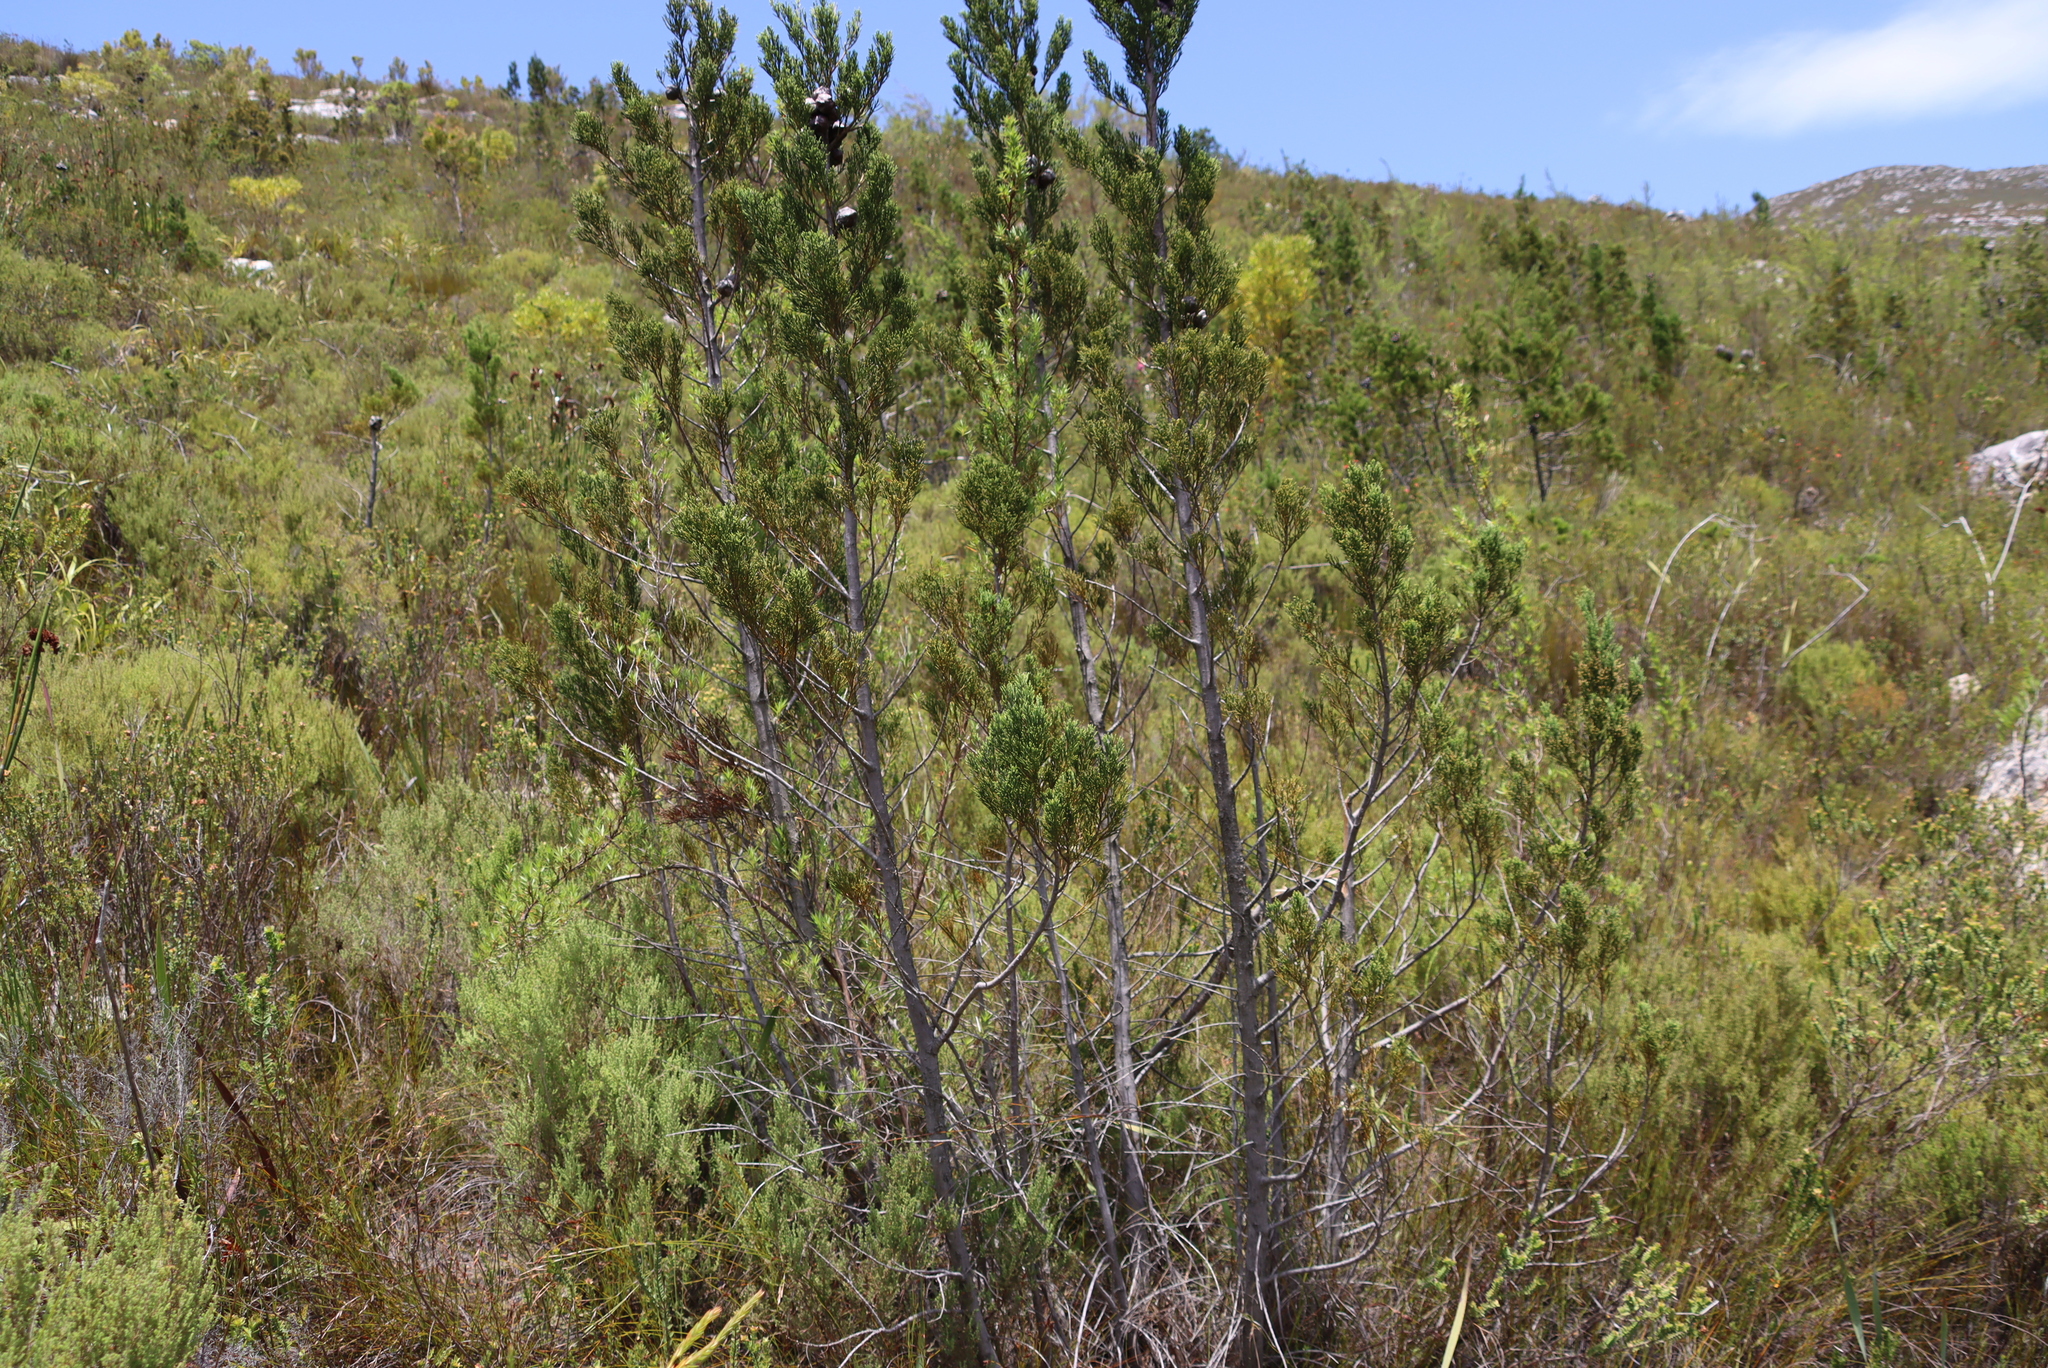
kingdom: Plantae
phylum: Tracheophyta
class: Pinopsida
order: Pinales
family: Cupressaceae
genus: Widdringtonia
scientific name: Widdringtonia nodiflora
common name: Cape cypress
